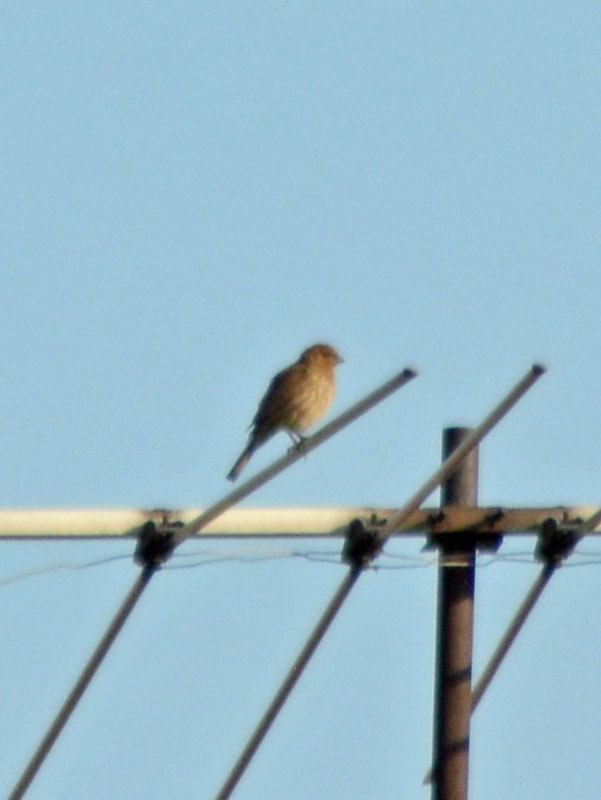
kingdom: Animalia
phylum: Chordata
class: Aves
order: Passeriformes
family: Fringillidae
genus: Haemorhous
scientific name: Haemorhous mexicanus
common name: House finch
